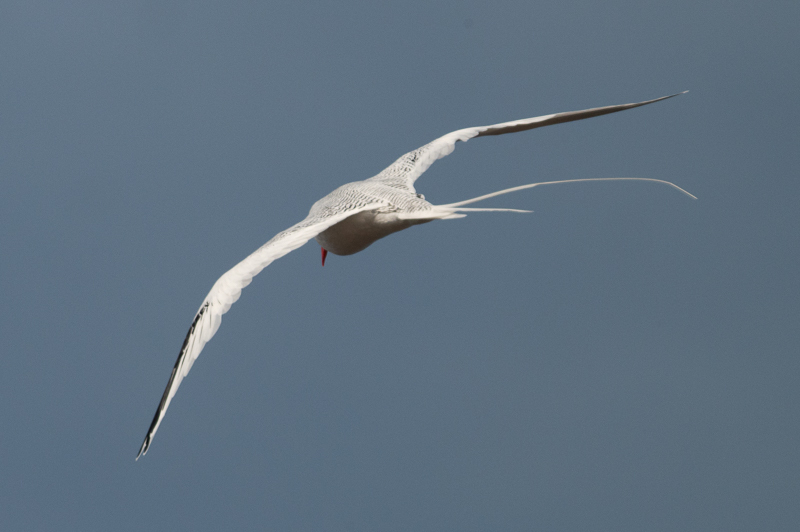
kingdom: Animalia
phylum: Chordata
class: Aves
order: Phaethontiformes
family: Phaethontidae
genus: Phaethon
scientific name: Phaethon aethereus
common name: Red-billed tropicbird
